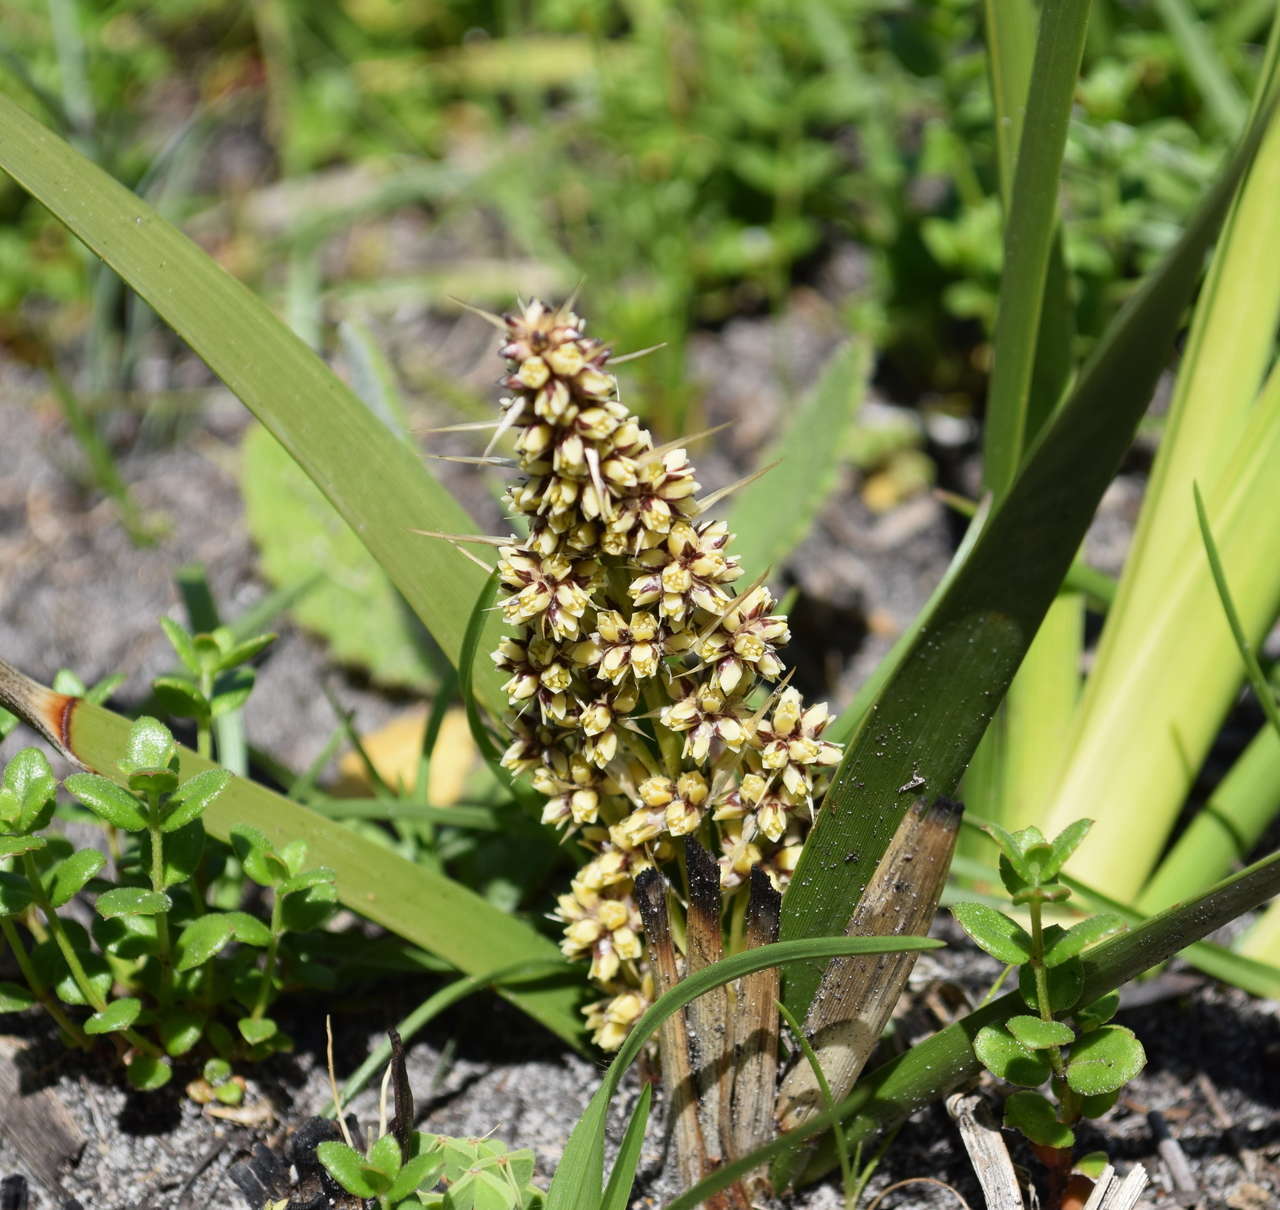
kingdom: Plantae
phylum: Tracheophyta
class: Liliopsida
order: Asparagales
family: Asparagaceae
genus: Lomandra
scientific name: Lomandra longifolia
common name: Longleaf mat-rush
